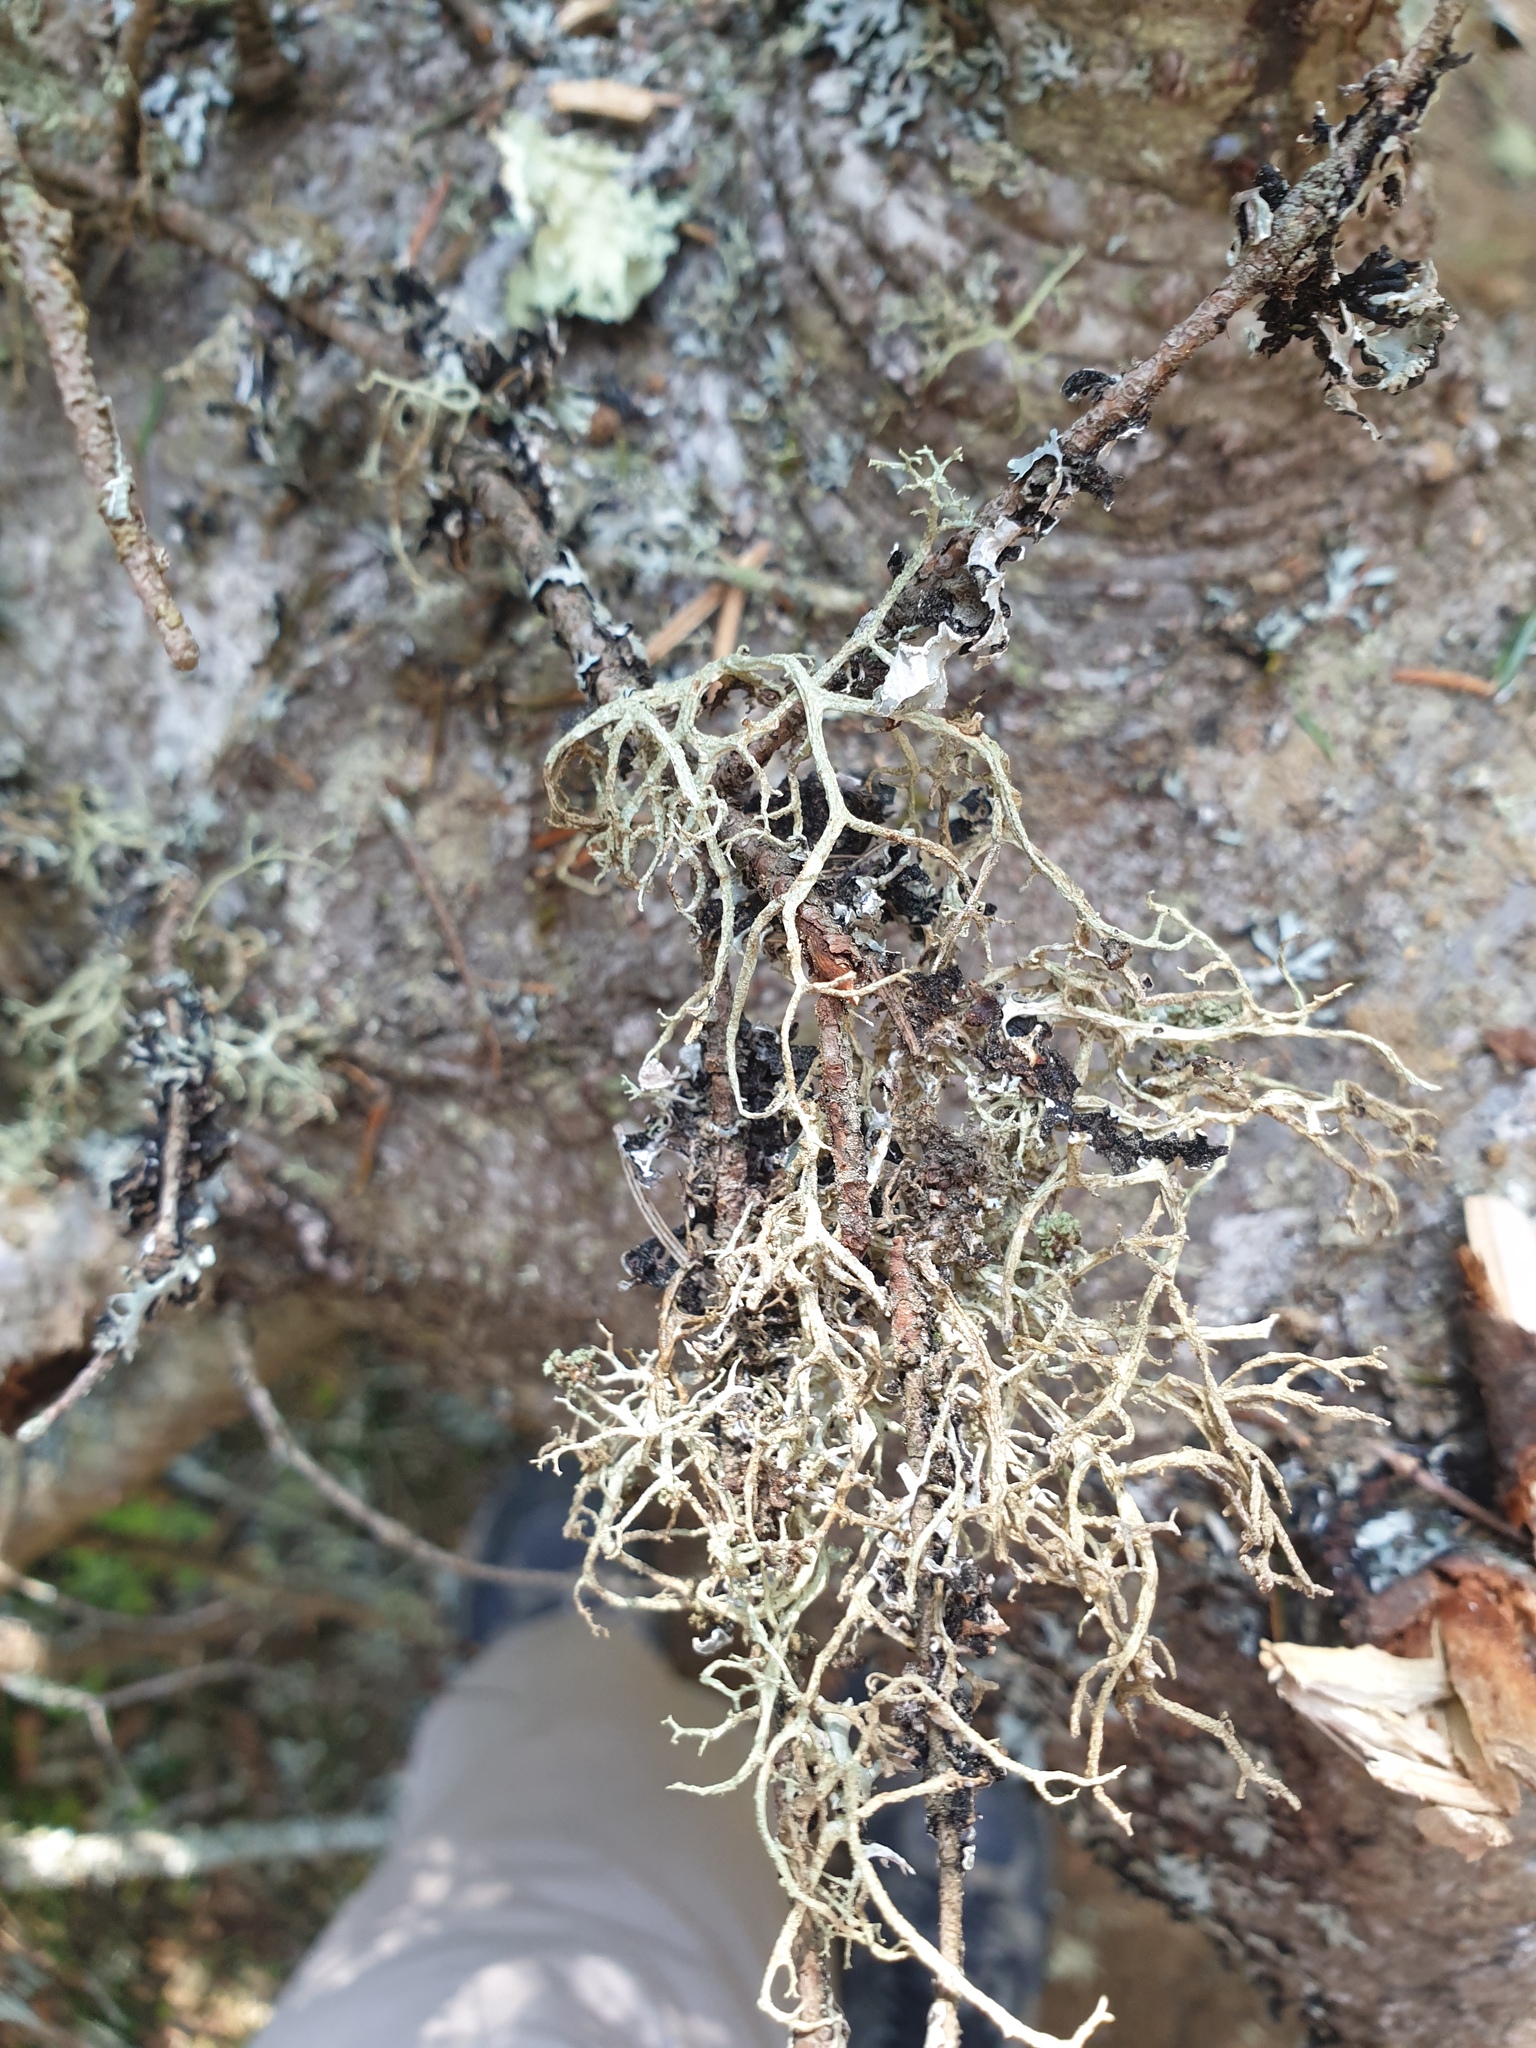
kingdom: Fungi
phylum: Ascomycota
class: Lecanoromycetes
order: Lecanorales
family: Parmeliaceae
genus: Evernia
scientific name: Evernia mesomorpha
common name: Boreal oak moss lichen
